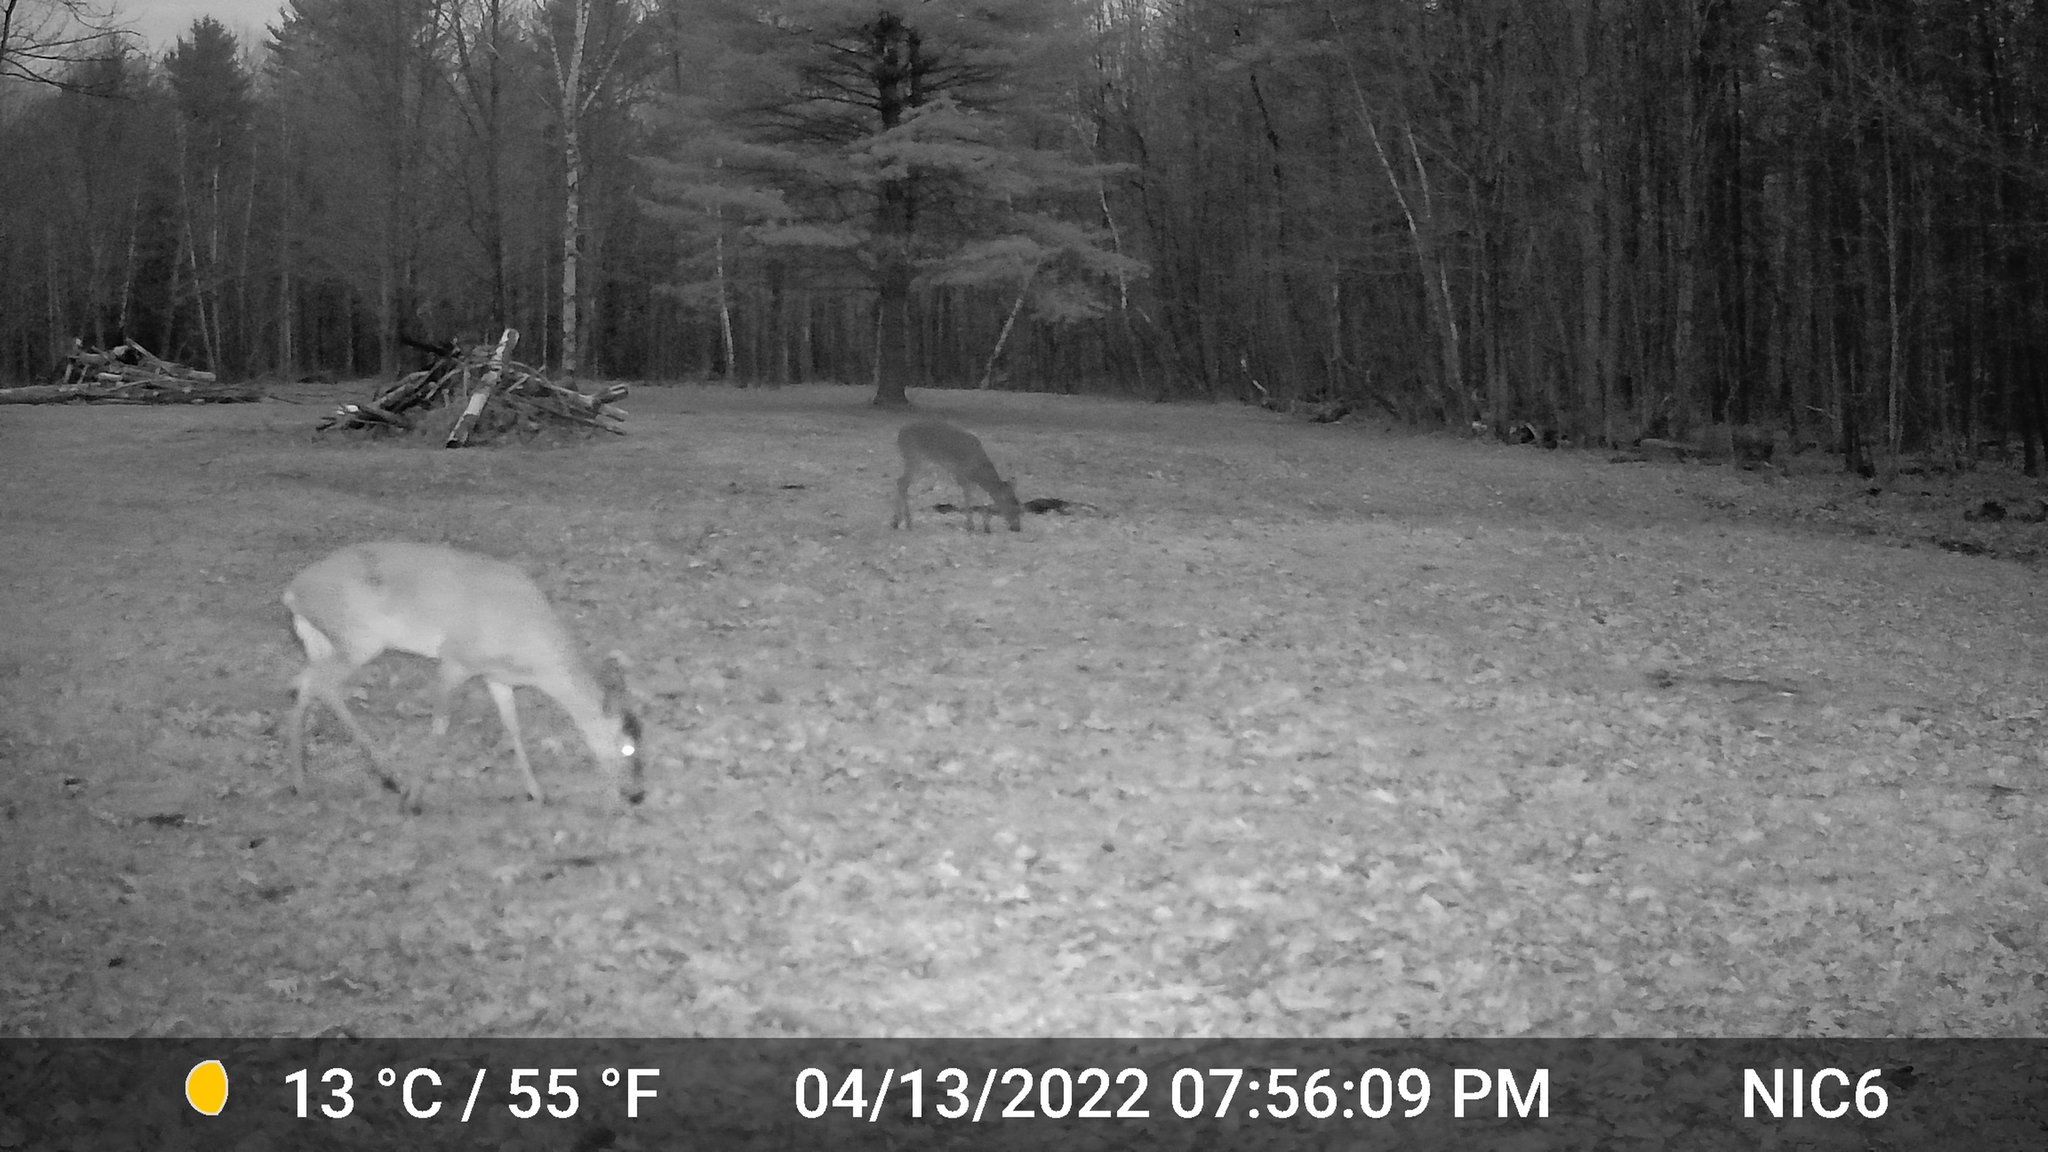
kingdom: Animalia
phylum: Chordata
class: Mammalia
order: Artiodactyla
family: Cervidae
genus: Odocoileus
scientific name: Odocoileus virginianus
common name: White-tailed deer
